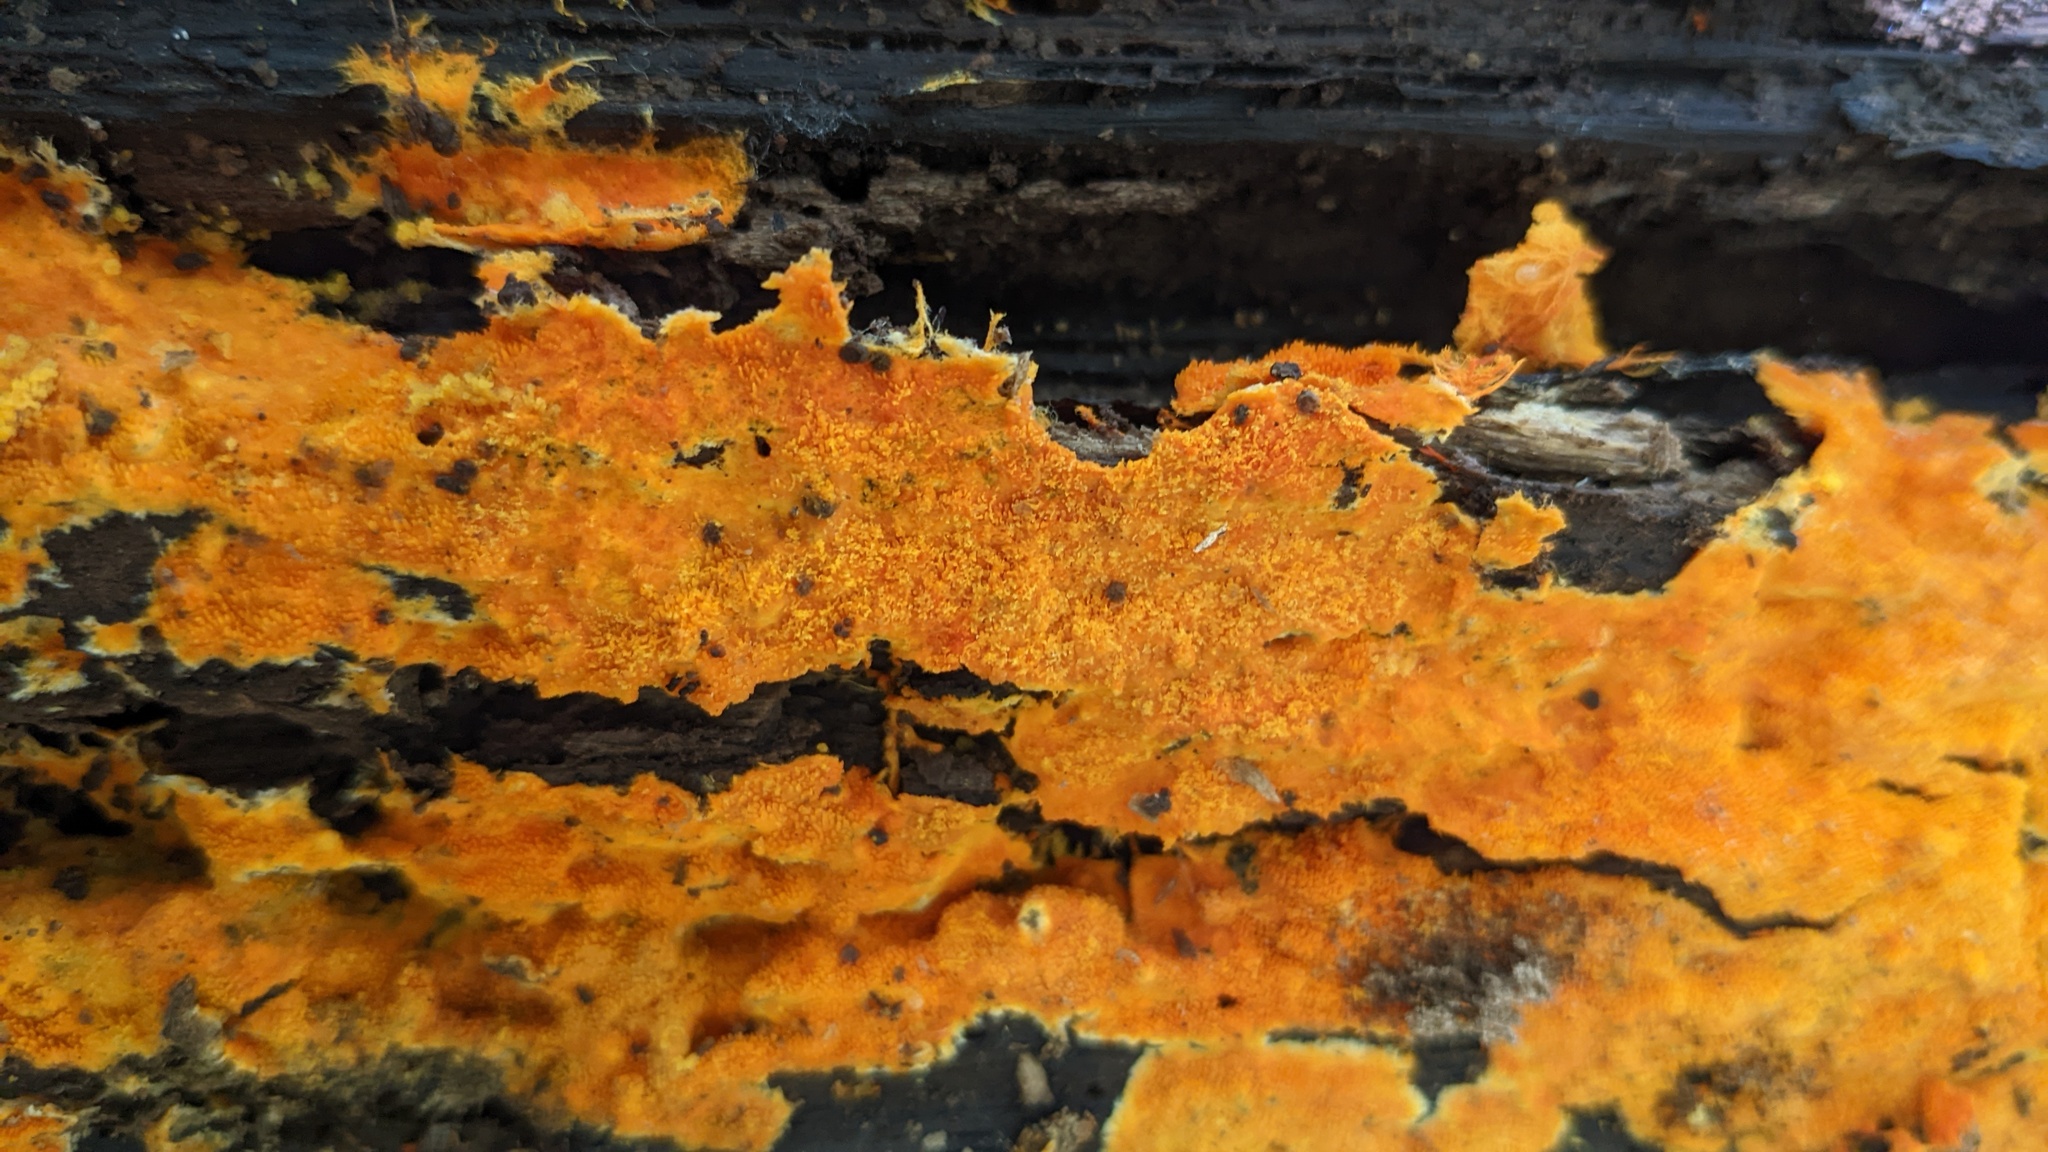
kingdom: Fungi
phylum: Basidiomycota
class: Agaricomycetes
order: Polyporales
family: Meruliaceae
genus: Hydnophlebia
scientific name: Hydnophlebia chrysorhiza
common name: Spreading yellow tooth
